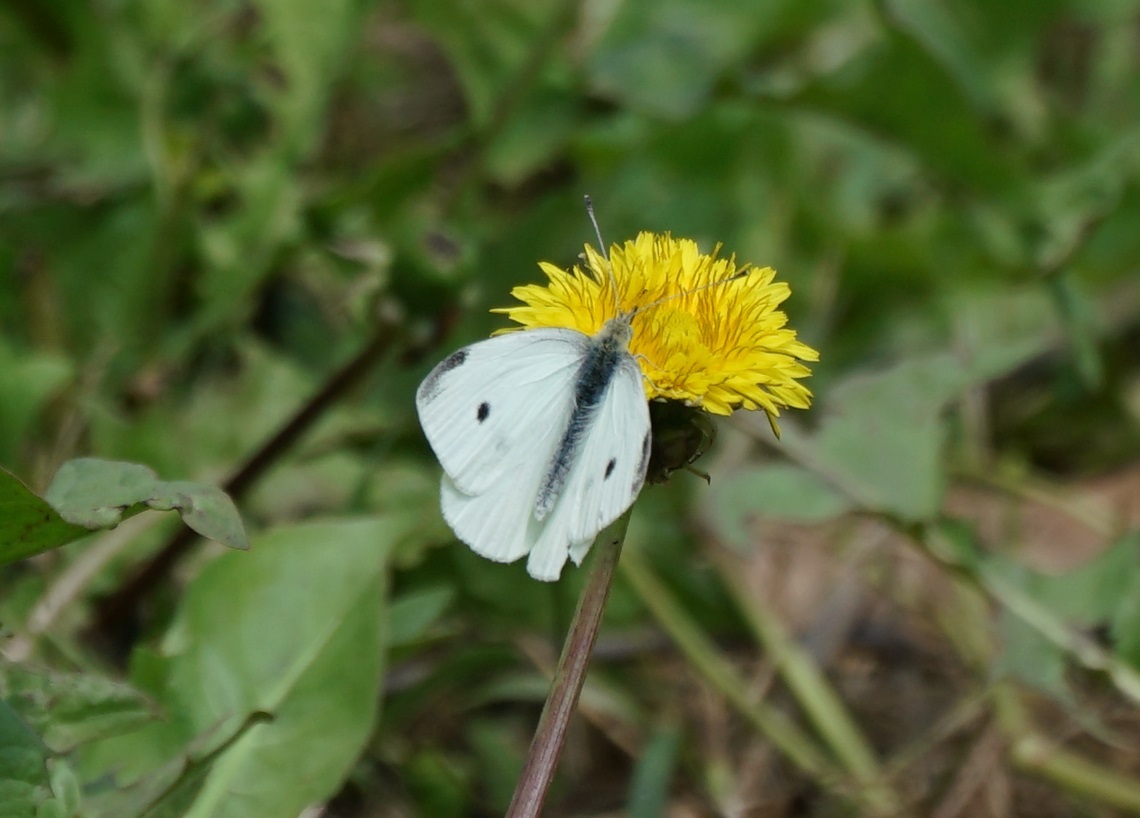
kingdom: Animalia
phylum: Arthropoda
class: Insecta
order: Lepidoptera
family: Pieridae
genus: Pieris
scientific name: Pieris rapae
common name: Small white
